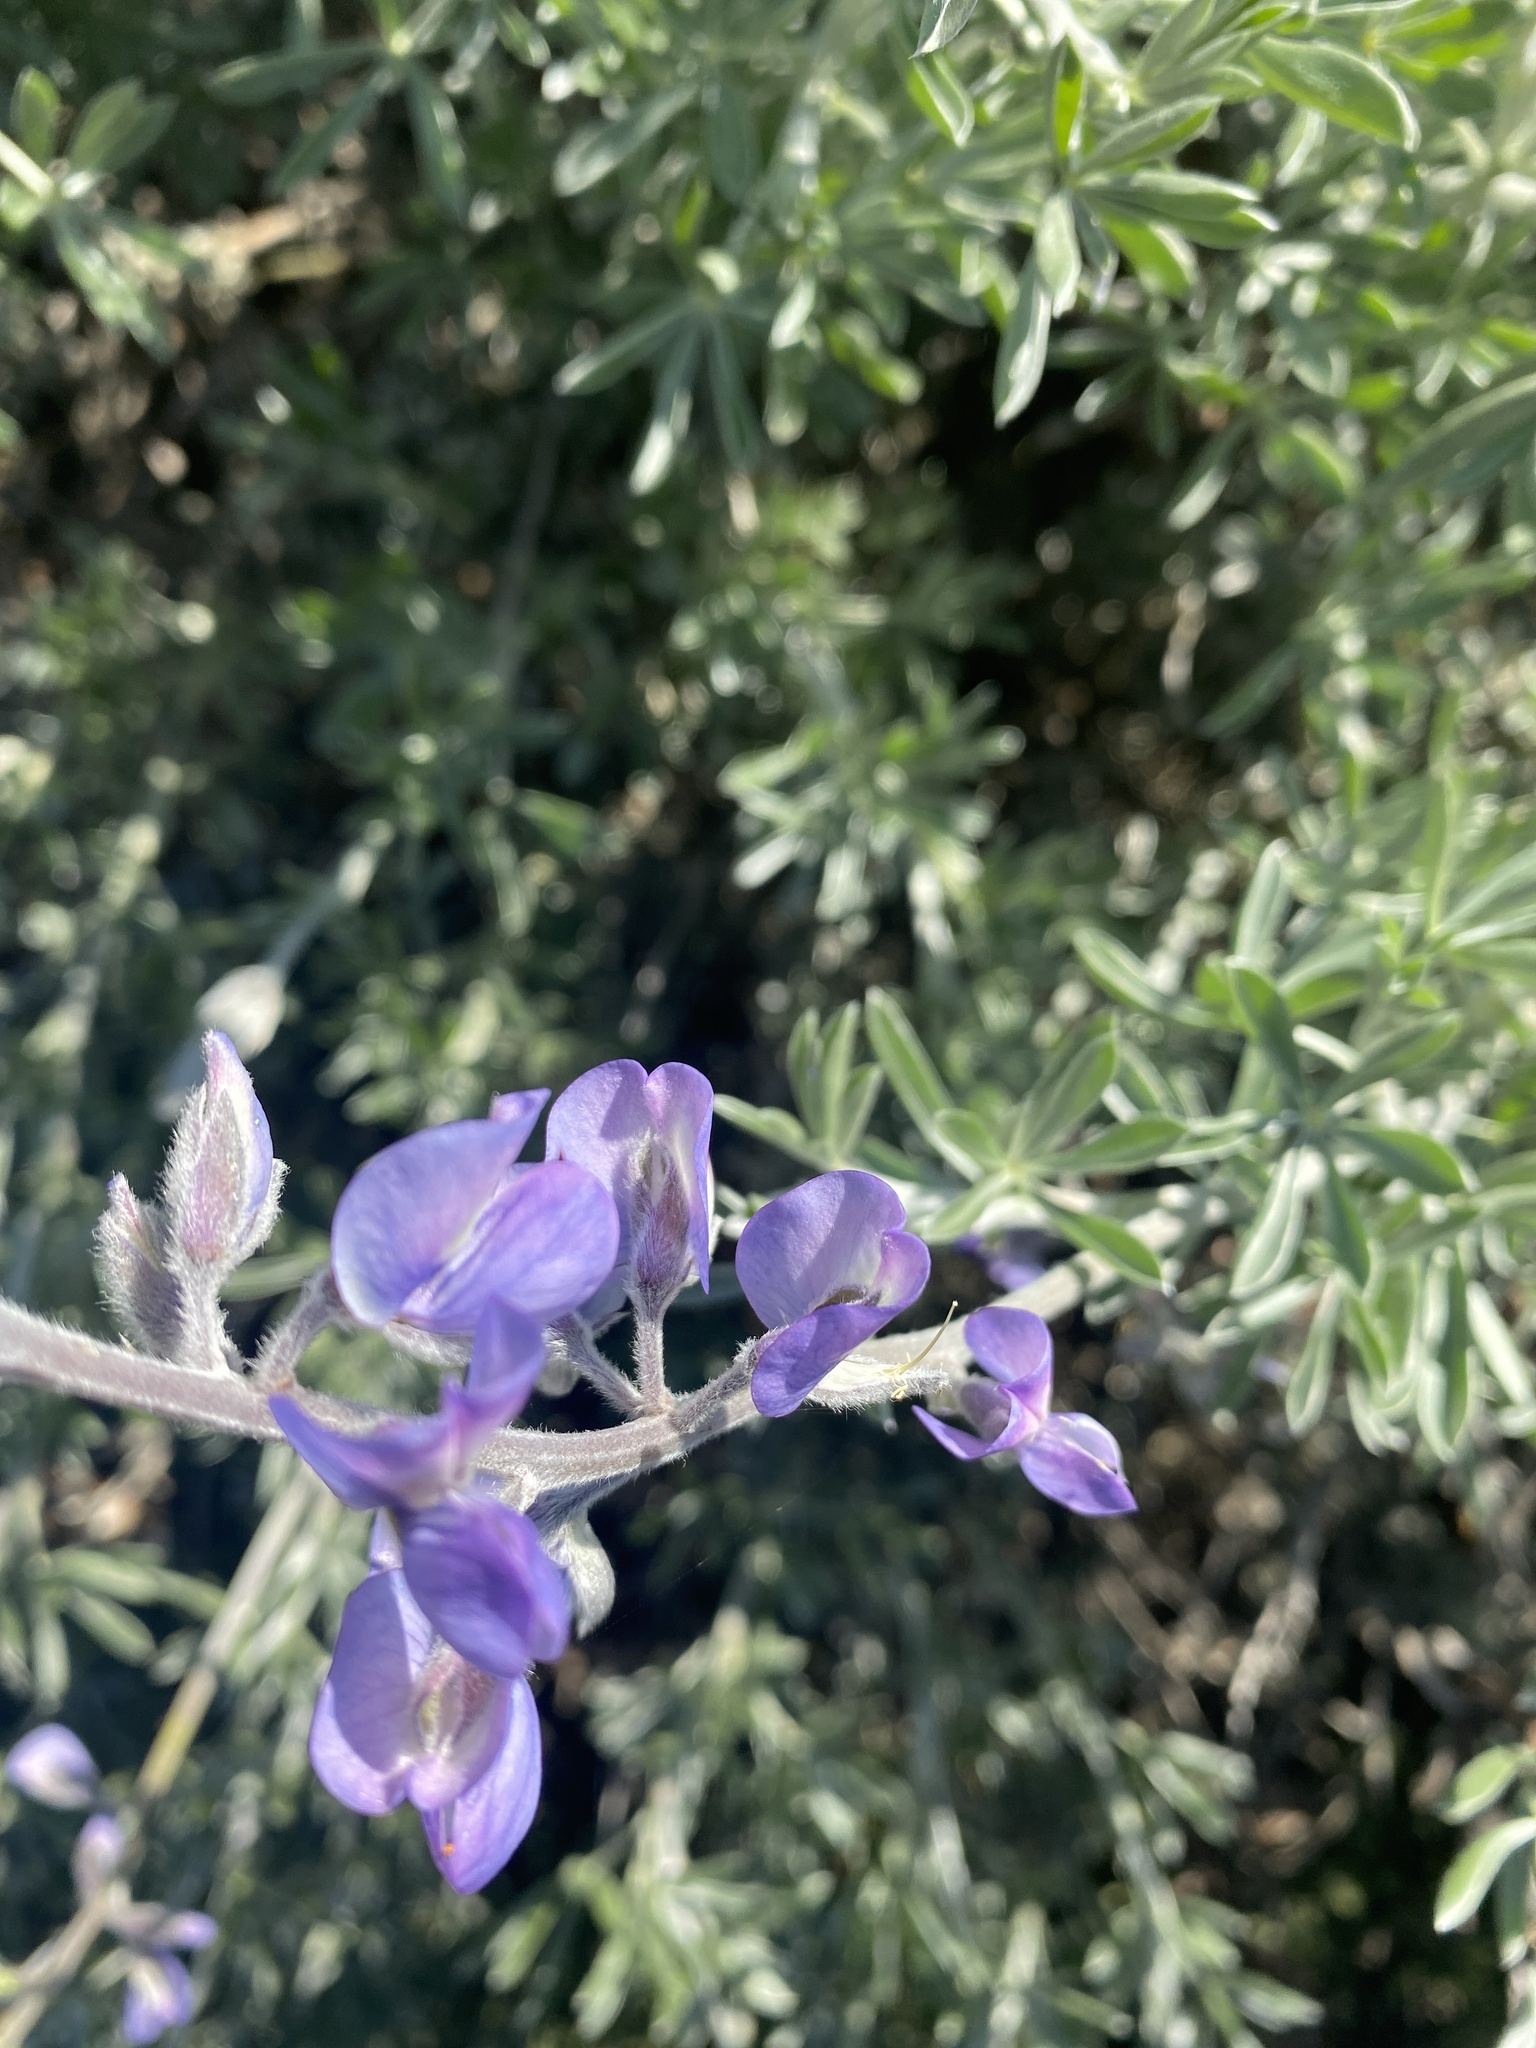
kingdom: Plantae
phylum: Tracheophyta
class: Magnoliopsida
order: Fabales
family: Fabaceae
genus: Lupinus
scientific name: Lupinus chamissonis
